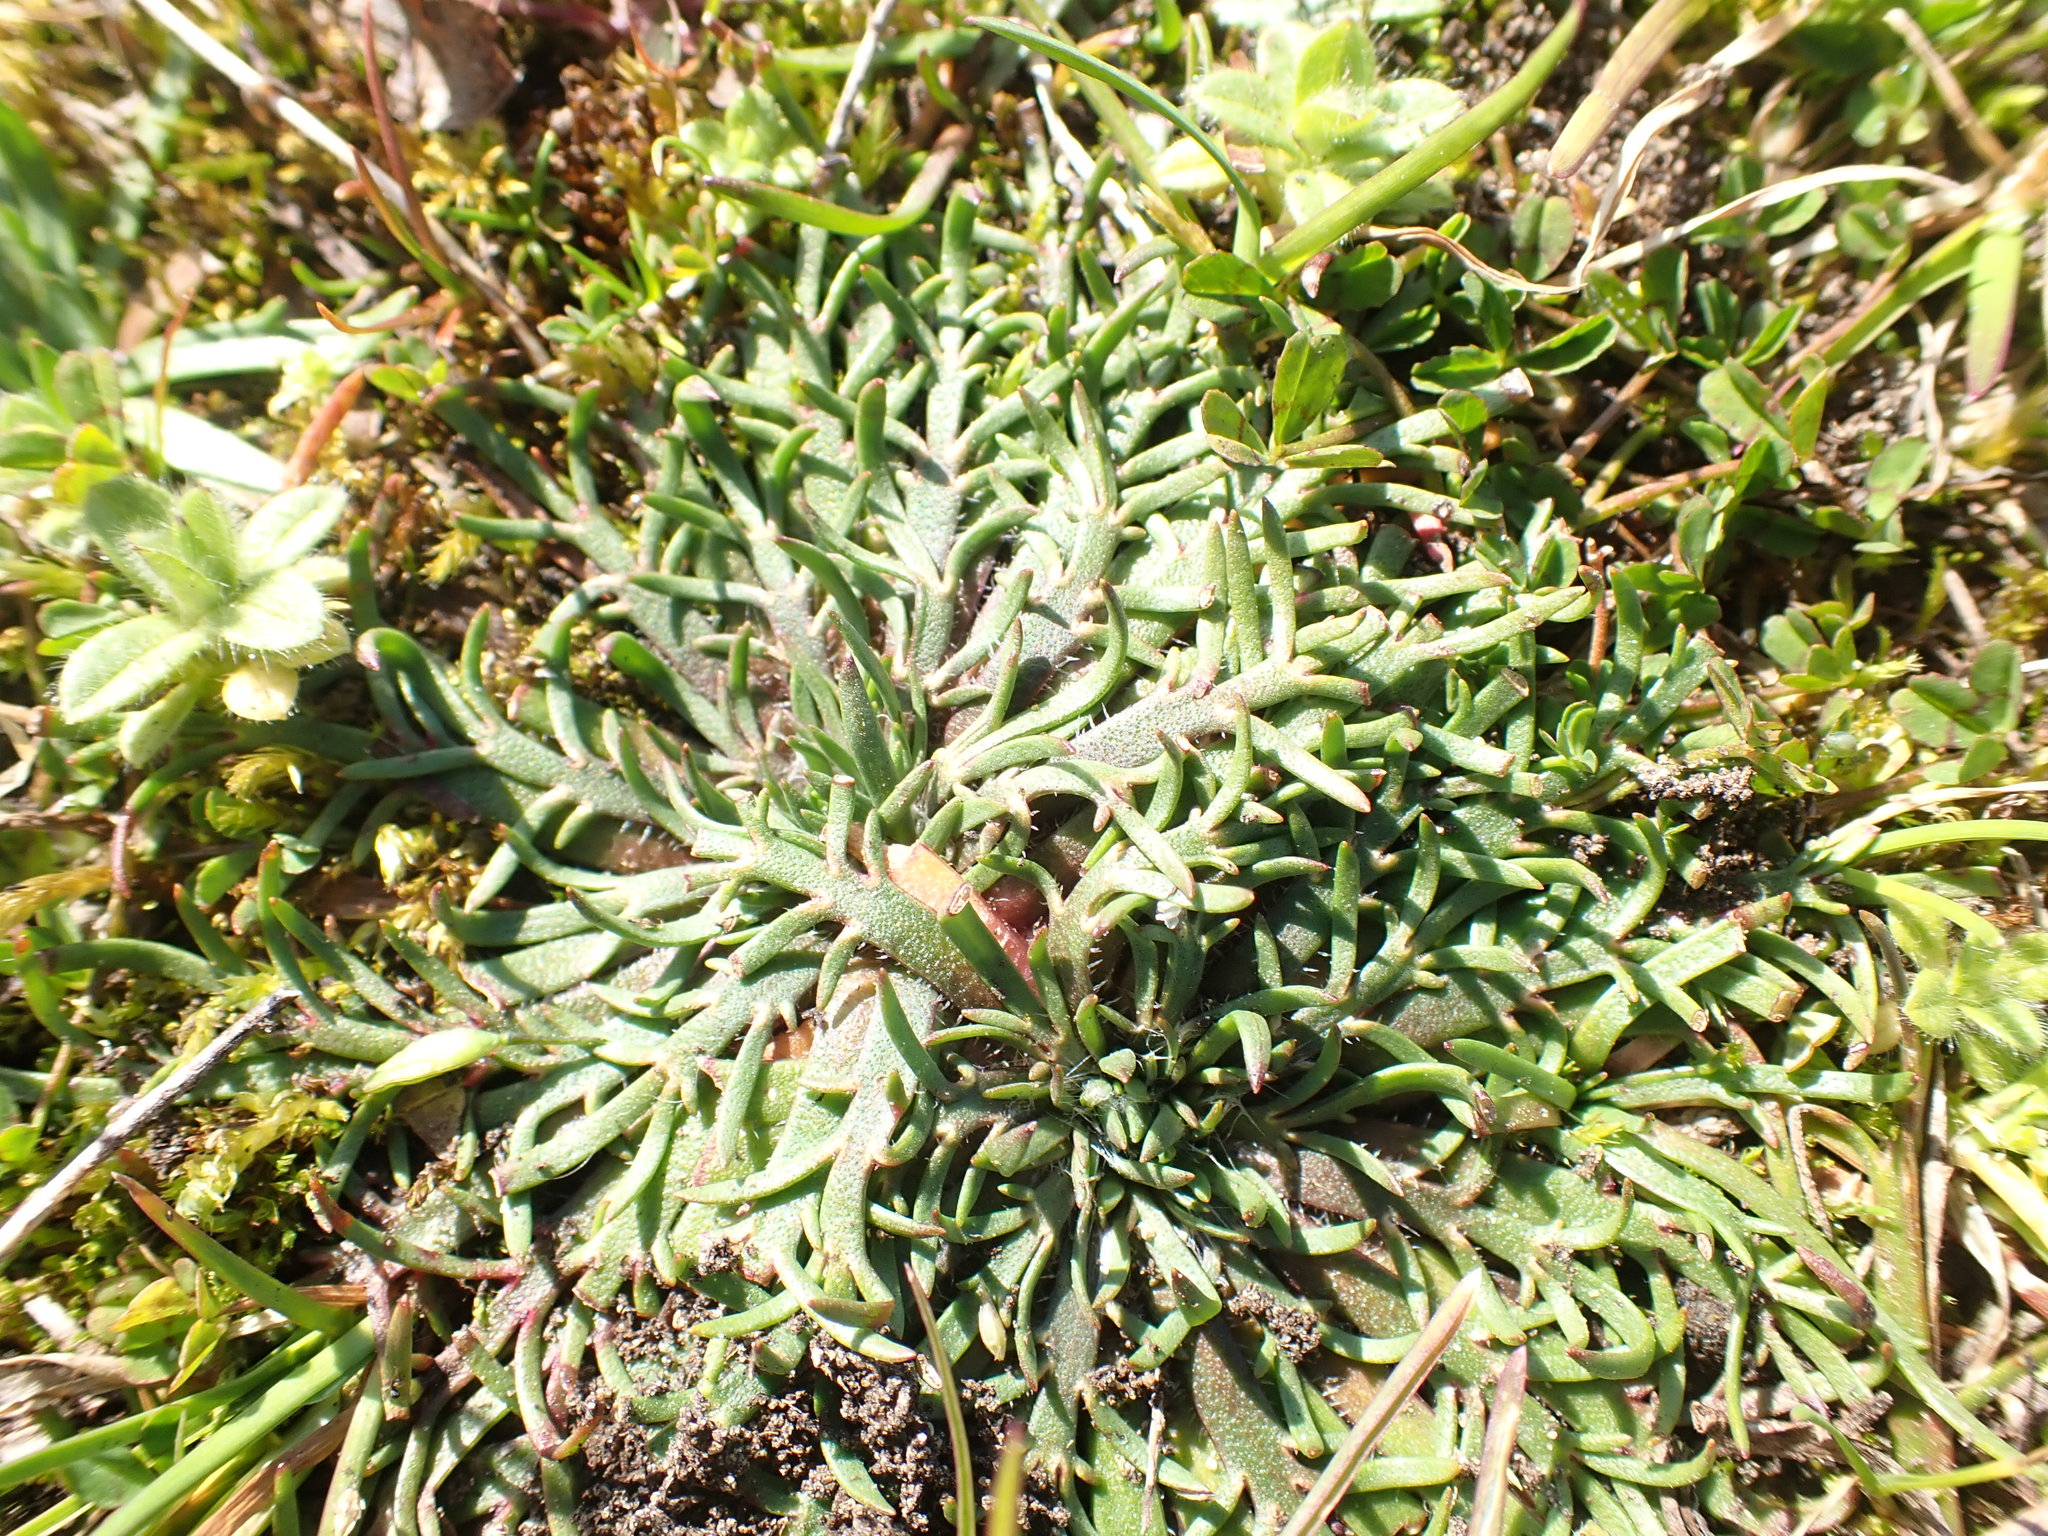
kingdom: Plantae
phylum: Tracheophyta
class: Magnoliopsida
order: Lamiales
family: Plantaginaceae
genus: Plantago
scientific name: Plantago coronopus
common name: Buck's-horn plantain
